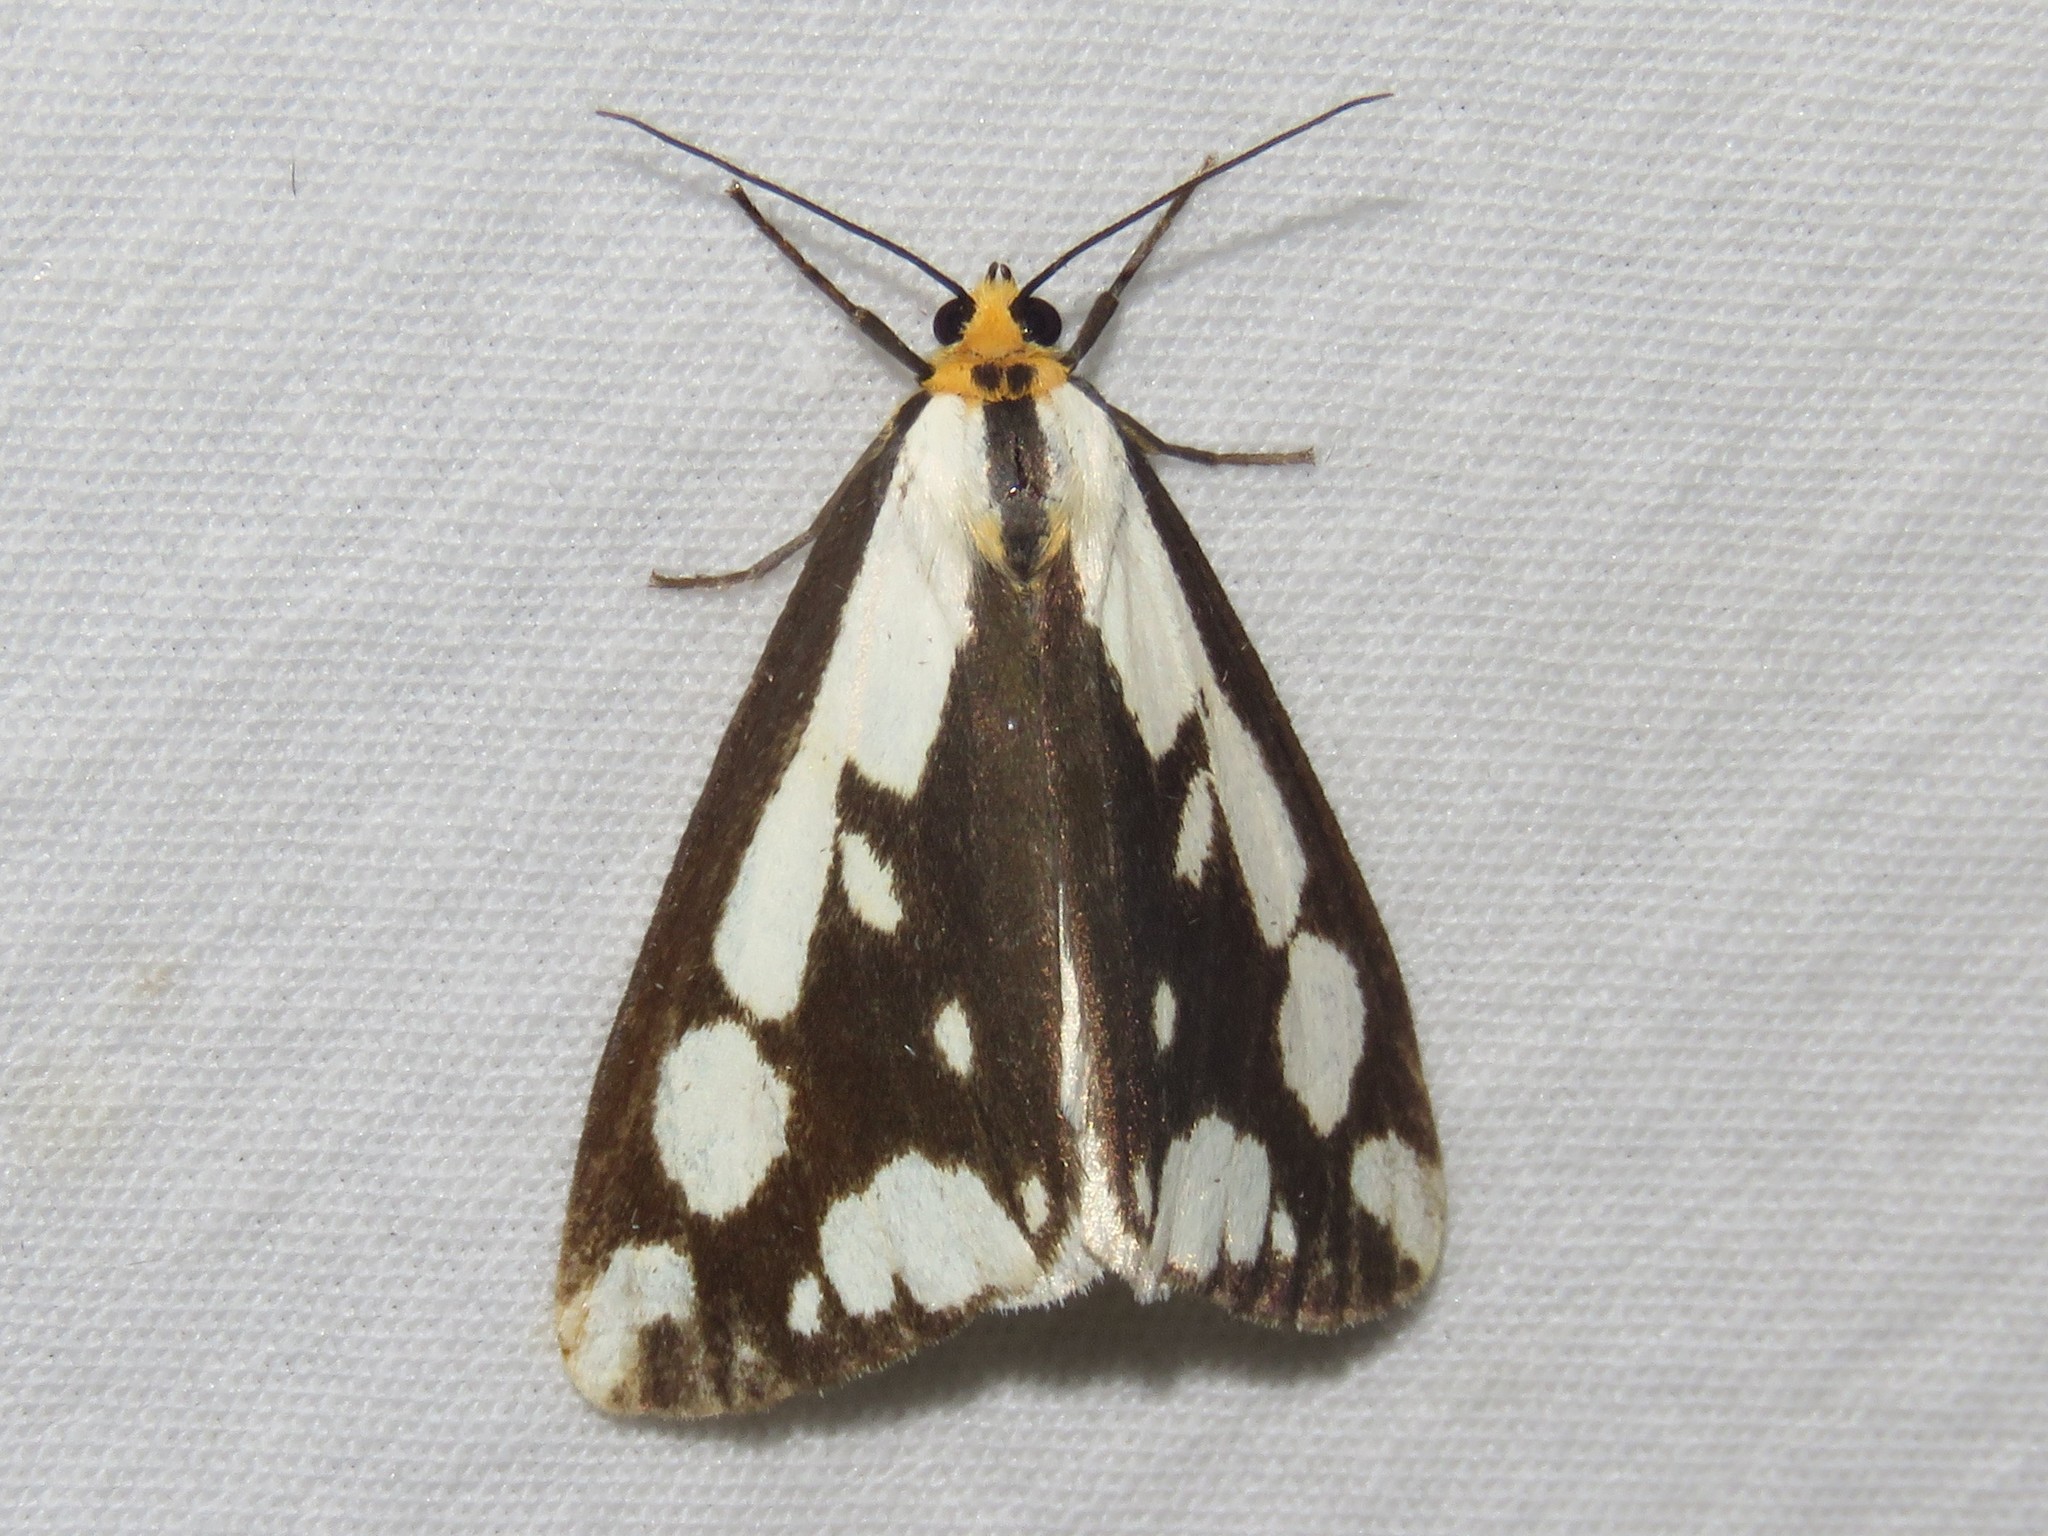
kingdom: Animalia
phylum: Arthropoda
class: Insecta
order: Lepidoptera
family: Erebidae
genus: Haploa
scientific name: Haploa confusa
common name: Confused haploa moth
